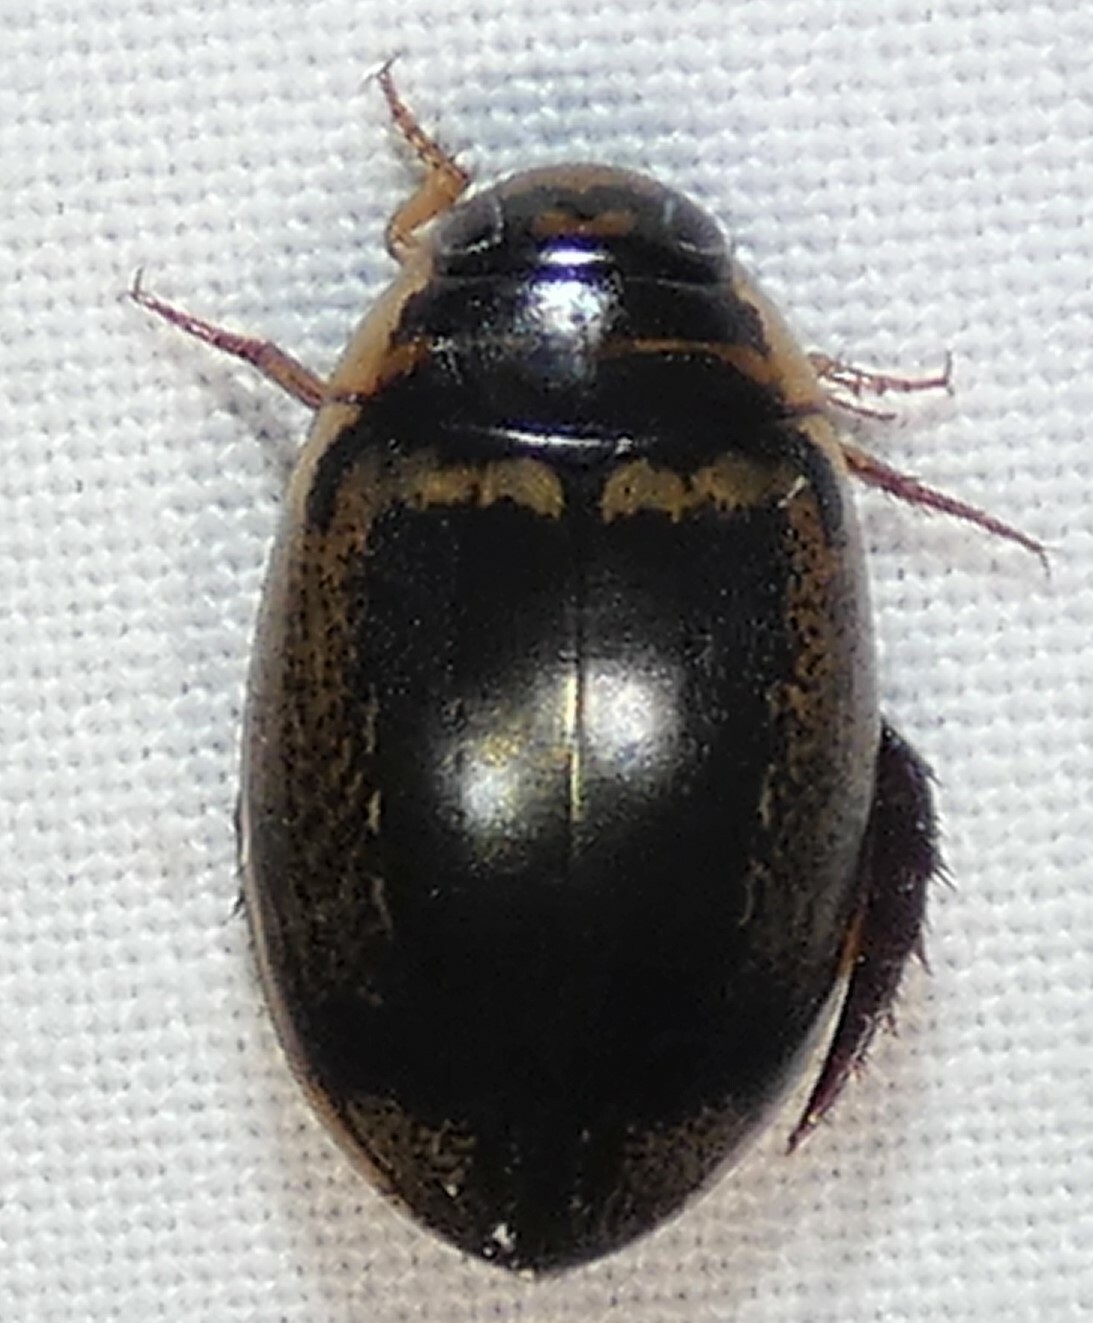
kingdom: Animalia
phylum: Arthropoda
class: Insecta
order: Coleoptera
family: Dytiscidae
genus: Thermonectus
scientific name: Thermonectus basillaris
